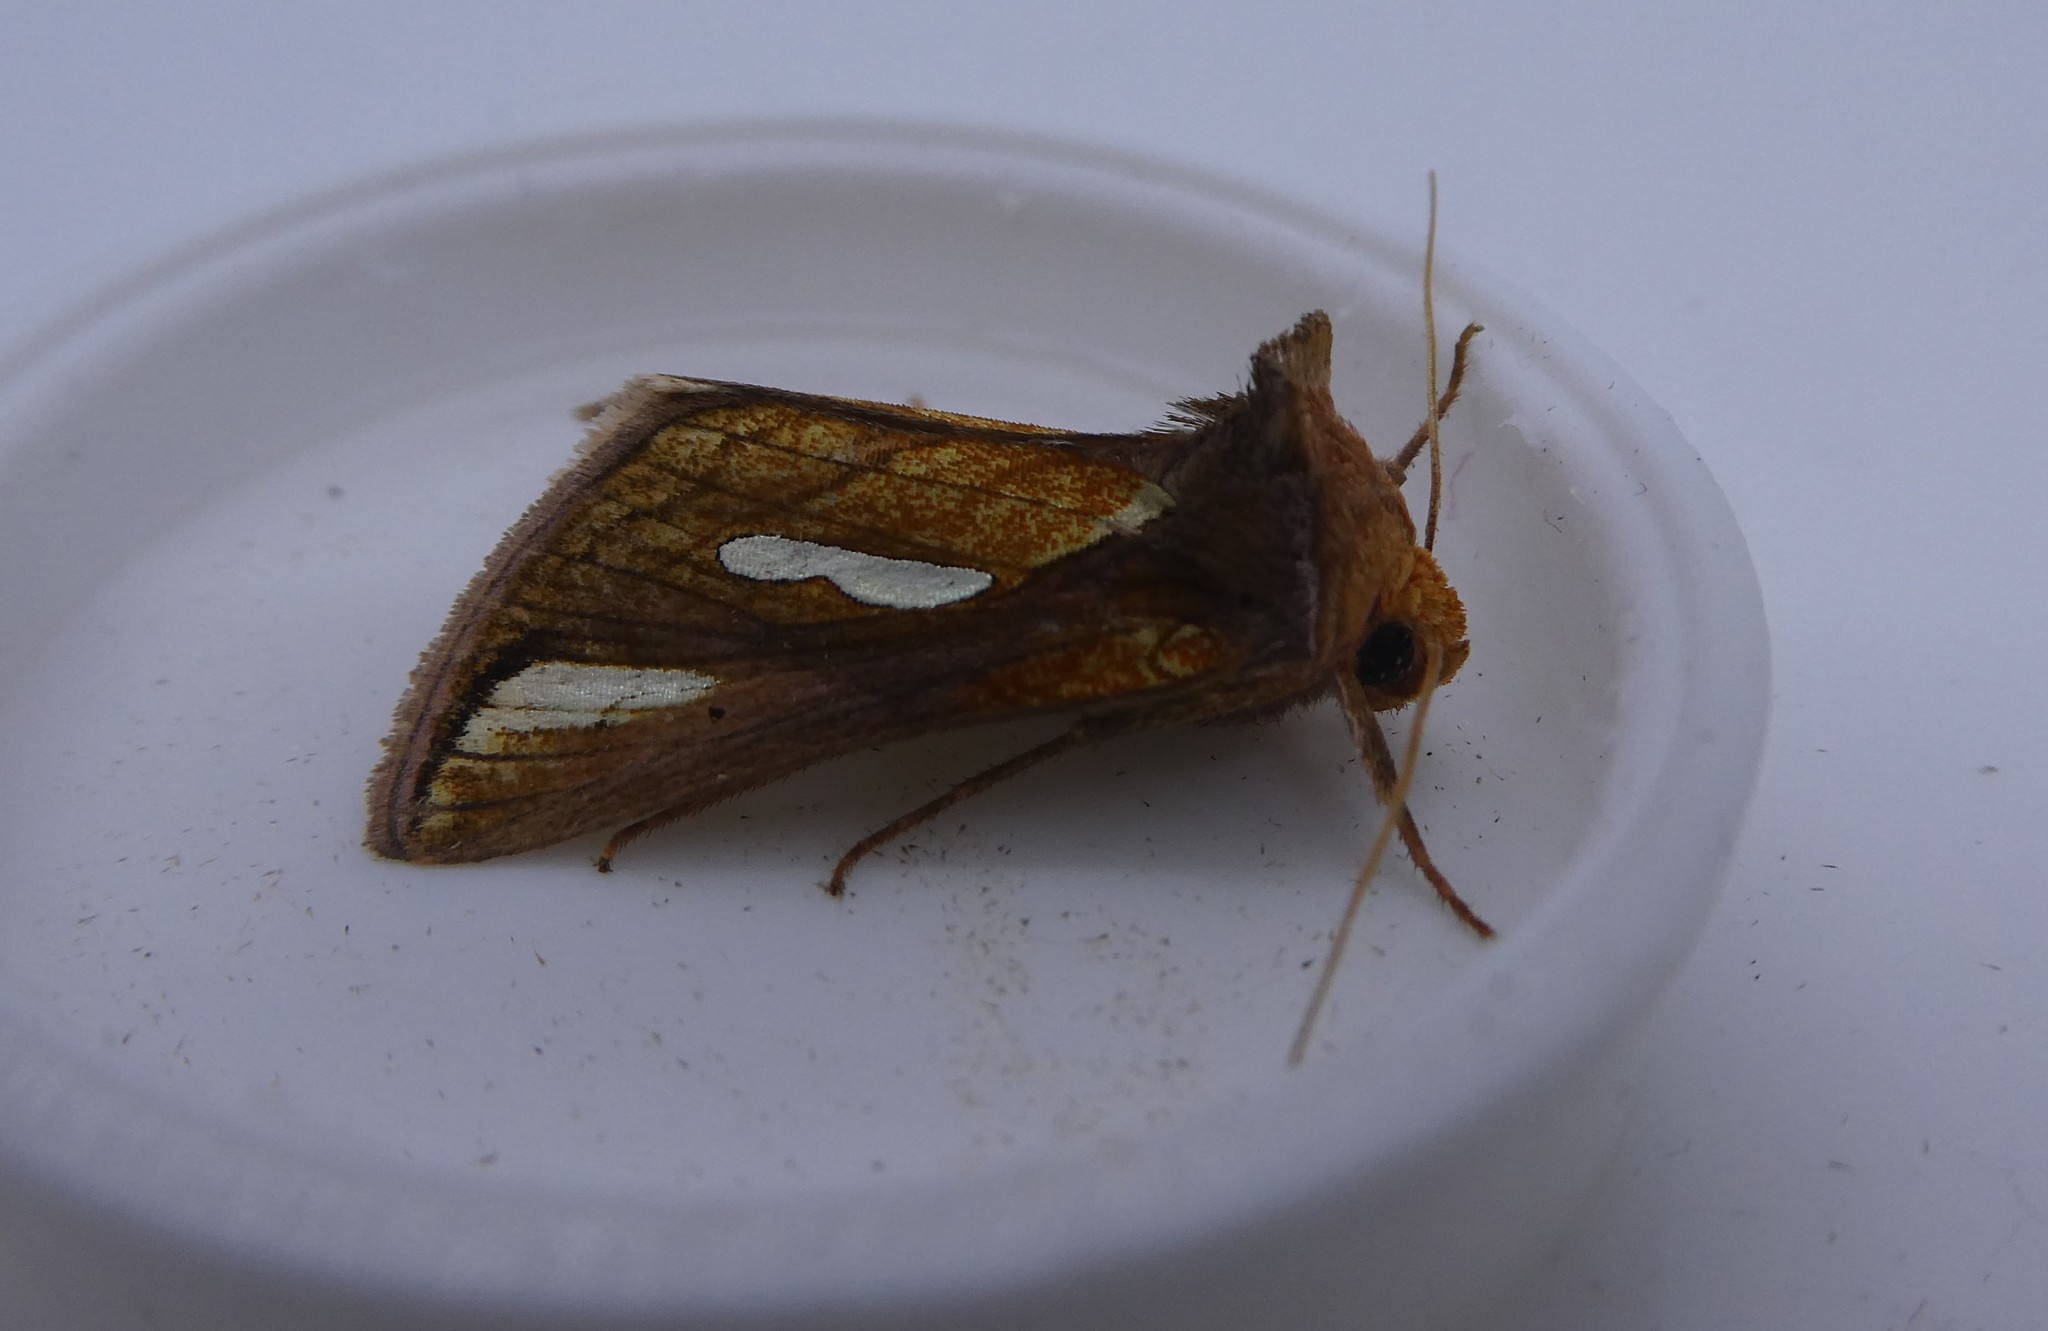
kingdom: Animalia
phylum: Arthropoda
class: Insecta
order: Lepidoptera
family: Noctuidae
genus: Plusia
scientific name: Plusia contexta
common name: Connected looper moth
